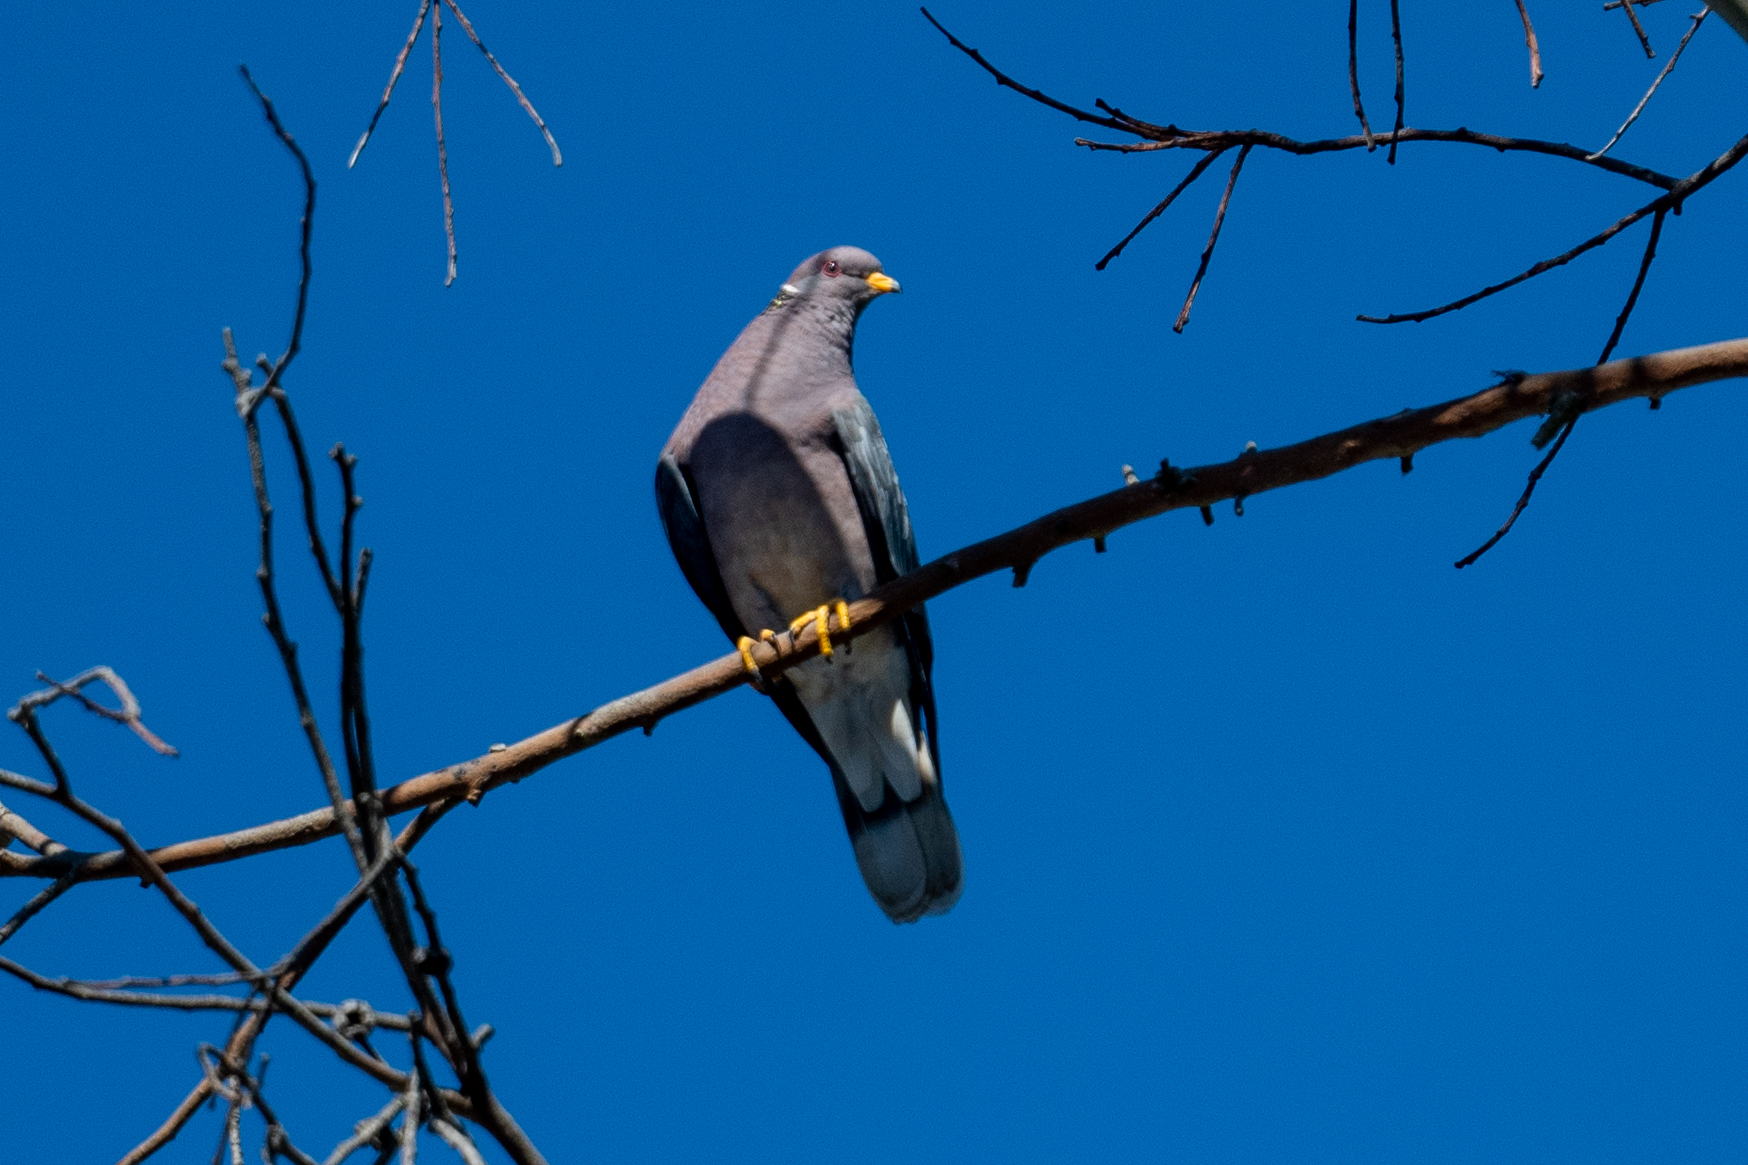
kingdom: Animalia
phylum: Chordata
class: Aves
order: Columbiformes
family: Columbidae
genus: Patagioenas
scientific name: Patagioenas fasciata
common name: Band-tailed pigeon
